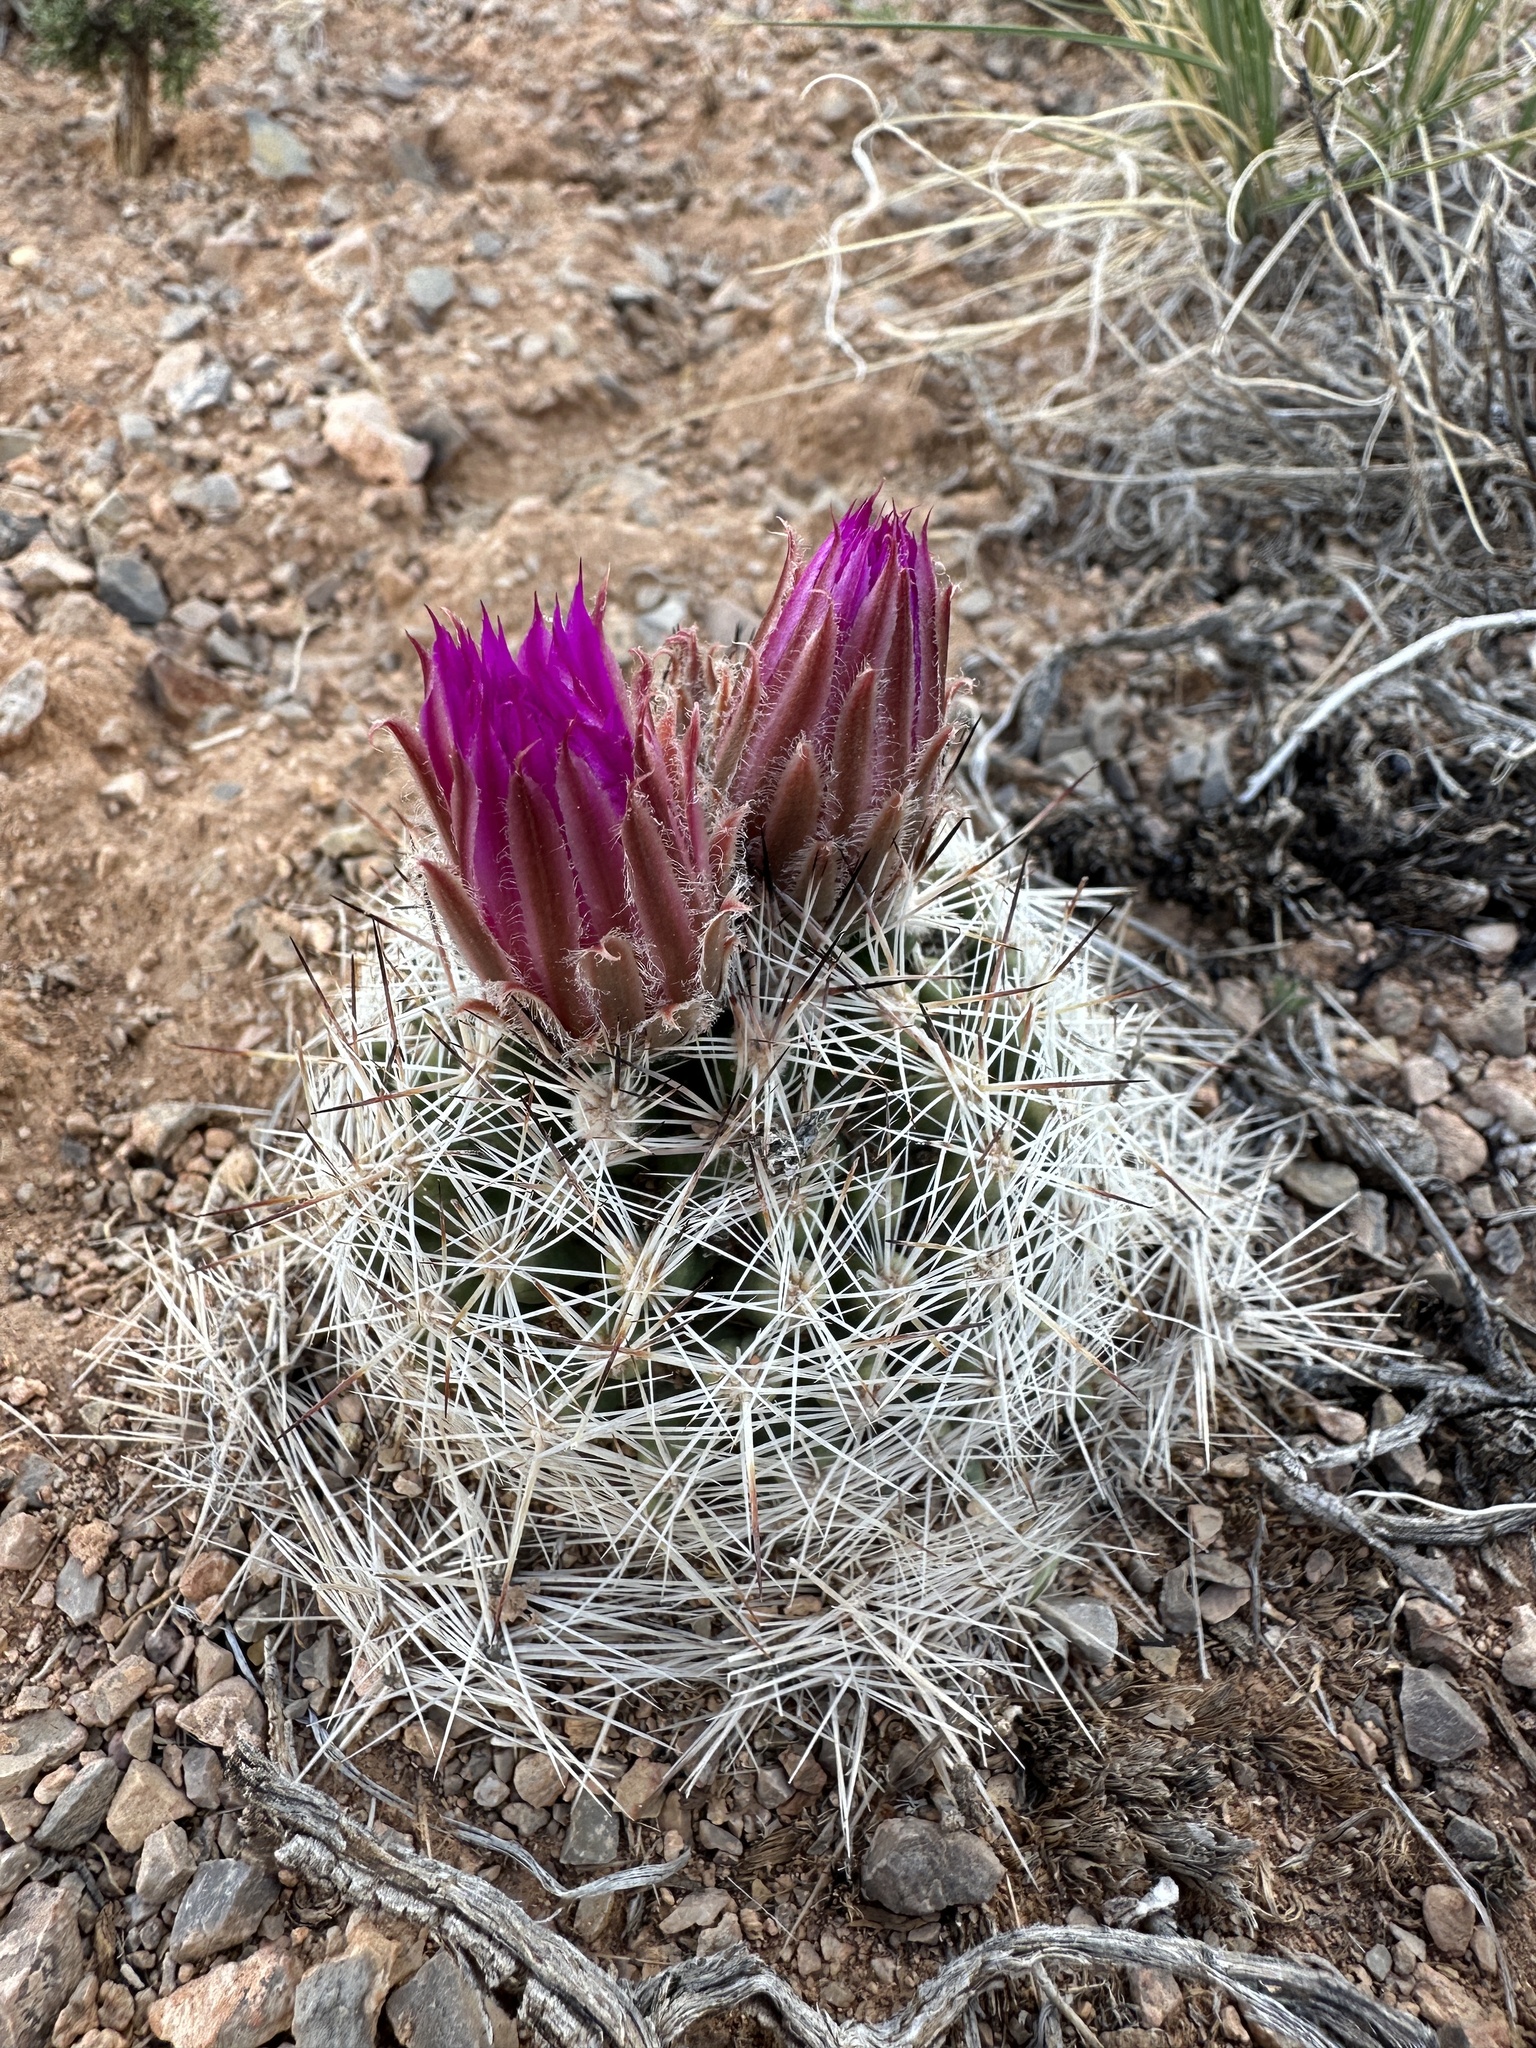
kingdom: Plantae
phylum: Tracheophyta
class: Magnoliopsida
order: Caryophyllales
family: Cactaceae
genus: Pelecyphora
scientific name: Pelecyphora vivipara
